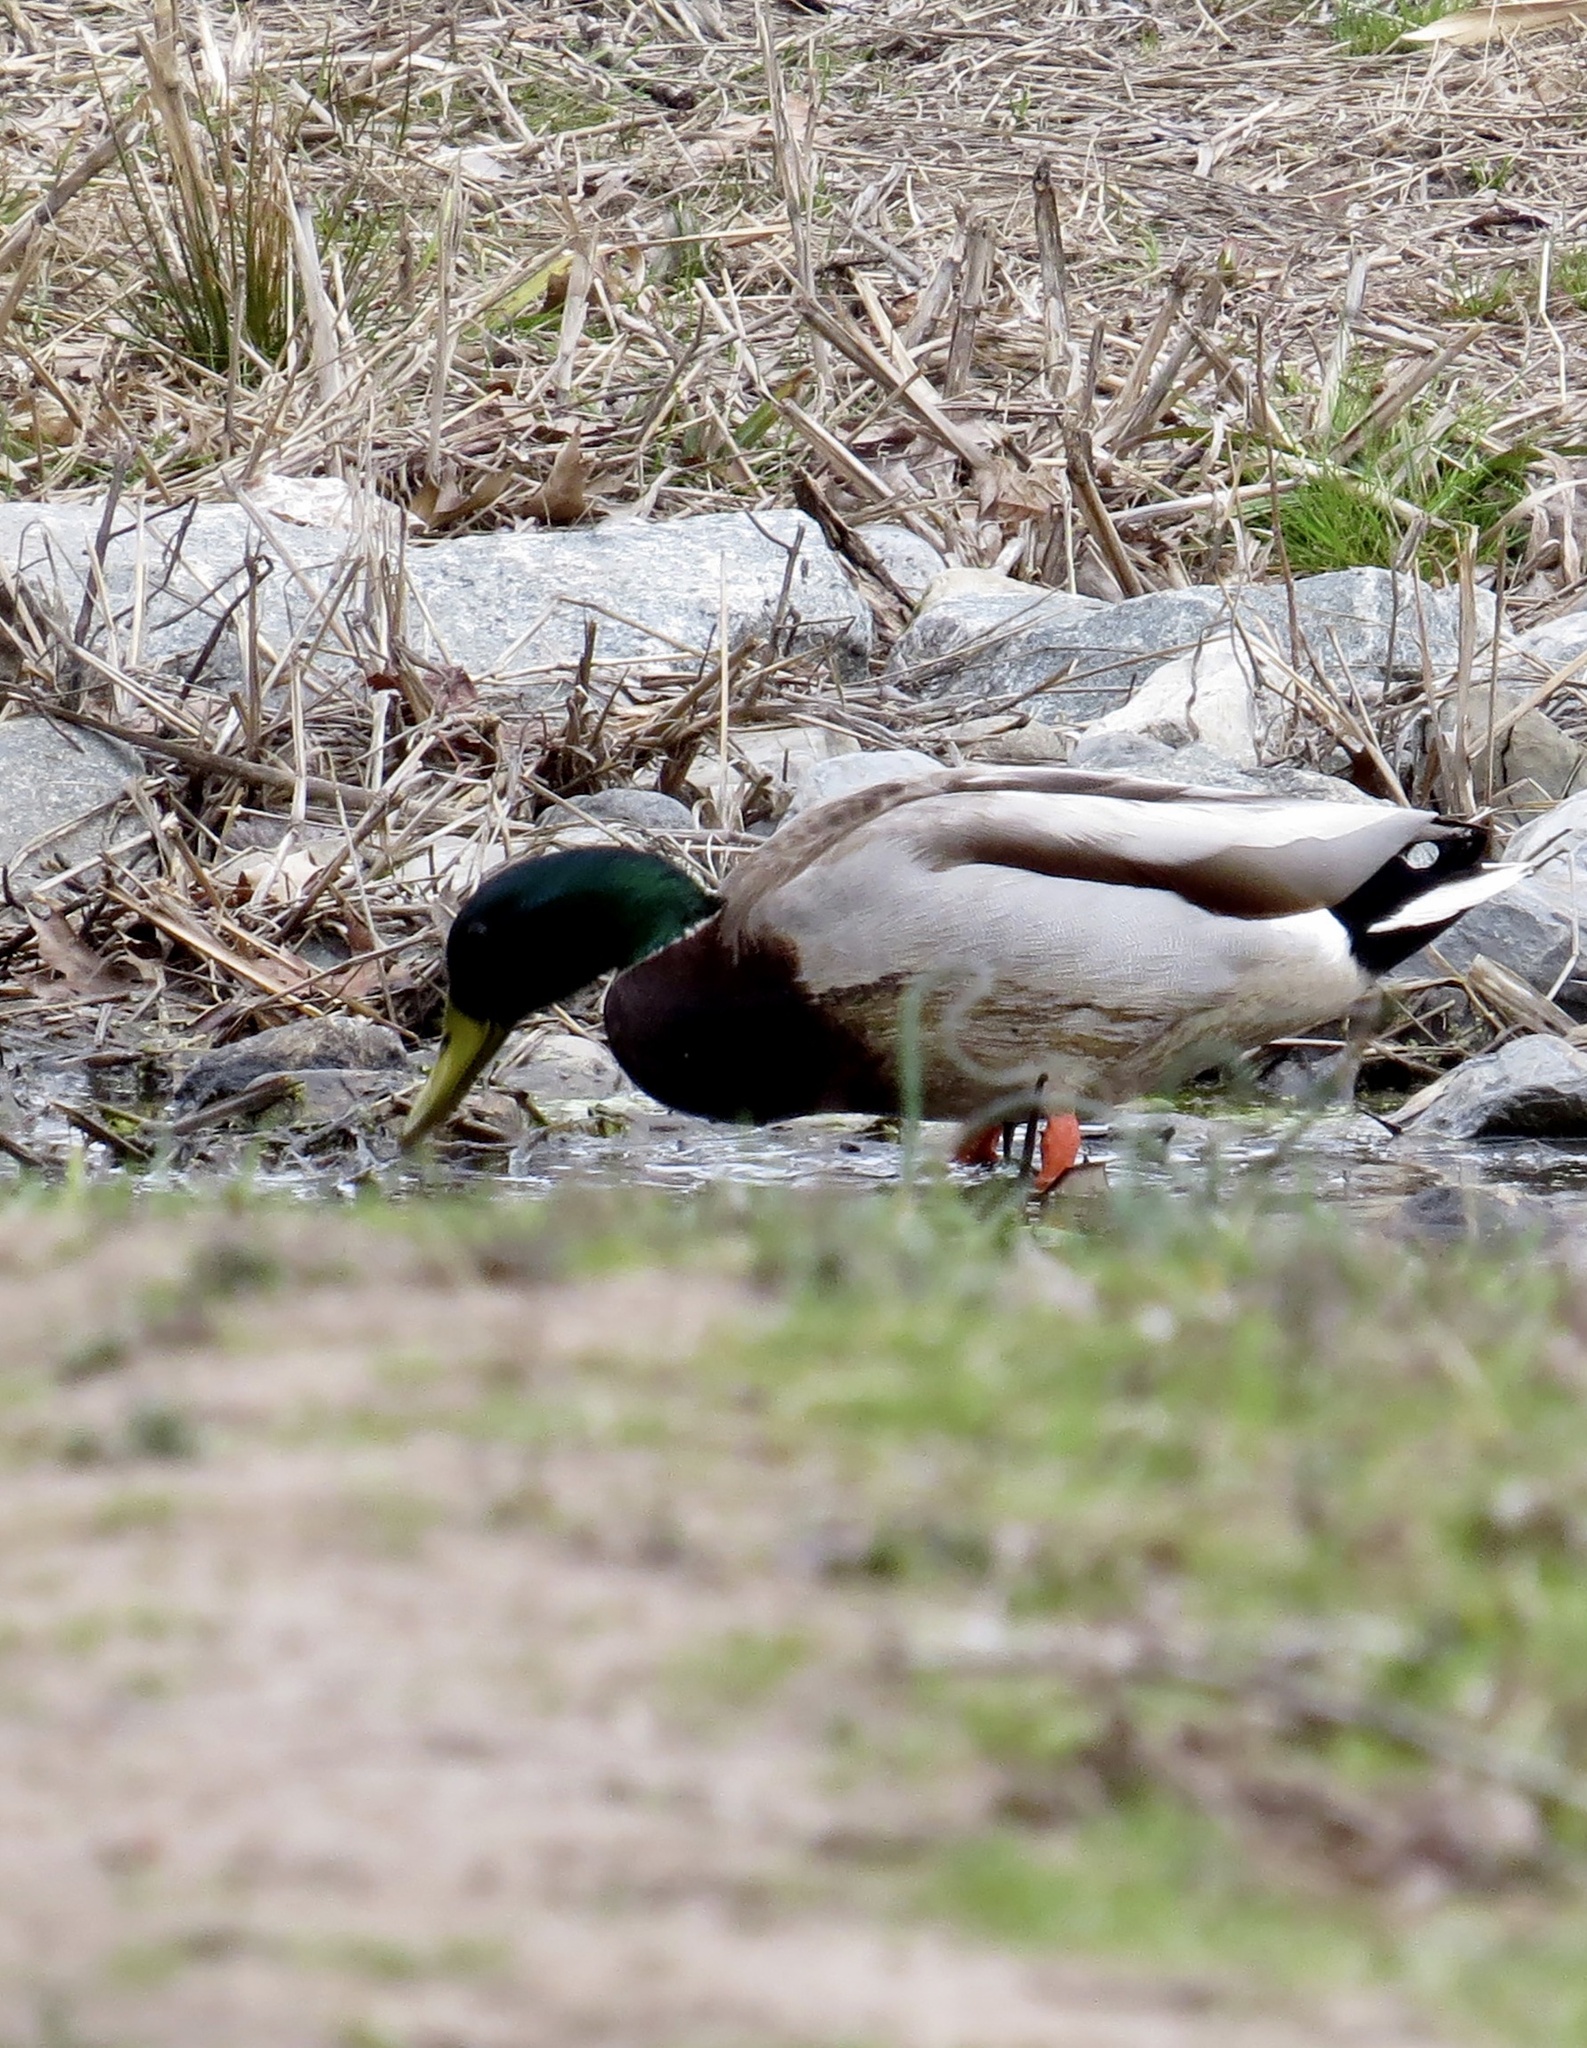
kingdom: Animalia
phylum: Chordata
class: Aves
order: Anseriformes
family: Anatidae
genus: Anas
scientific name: Anas platyrhynchos
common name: Mallard
